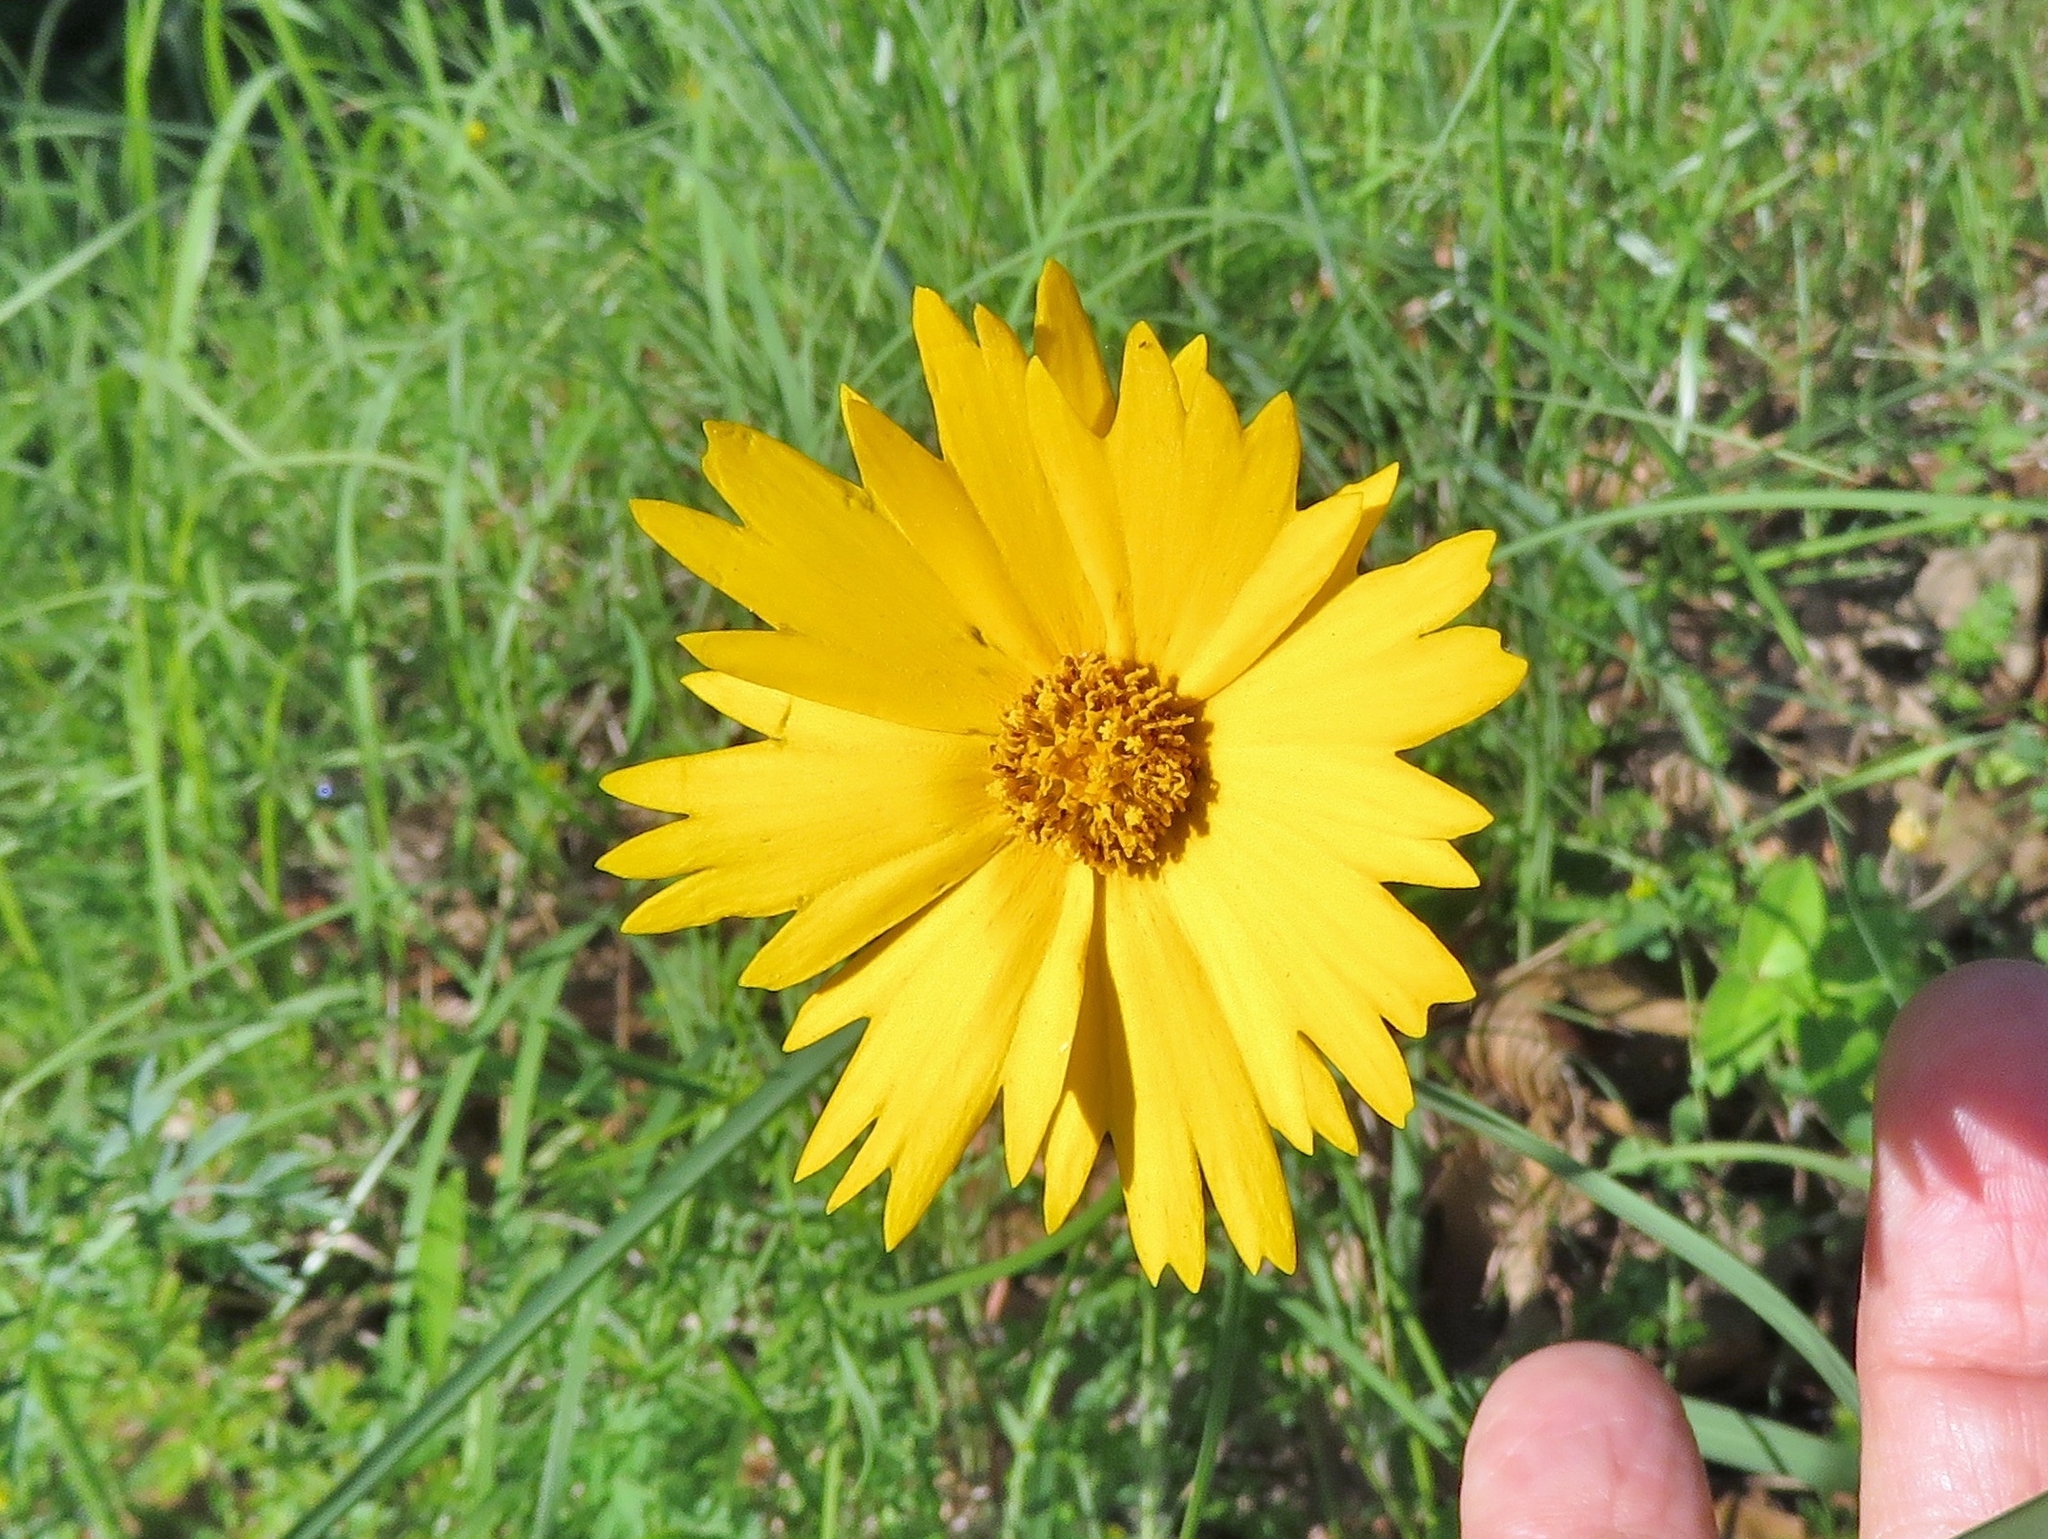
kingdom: Plantae
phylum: Tracheophyta
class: Magnoliopsida
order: Asterales
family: Asteraceae
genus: Coreopsis
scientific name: Coreopsis lanceolata
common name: Garden coreopsis
